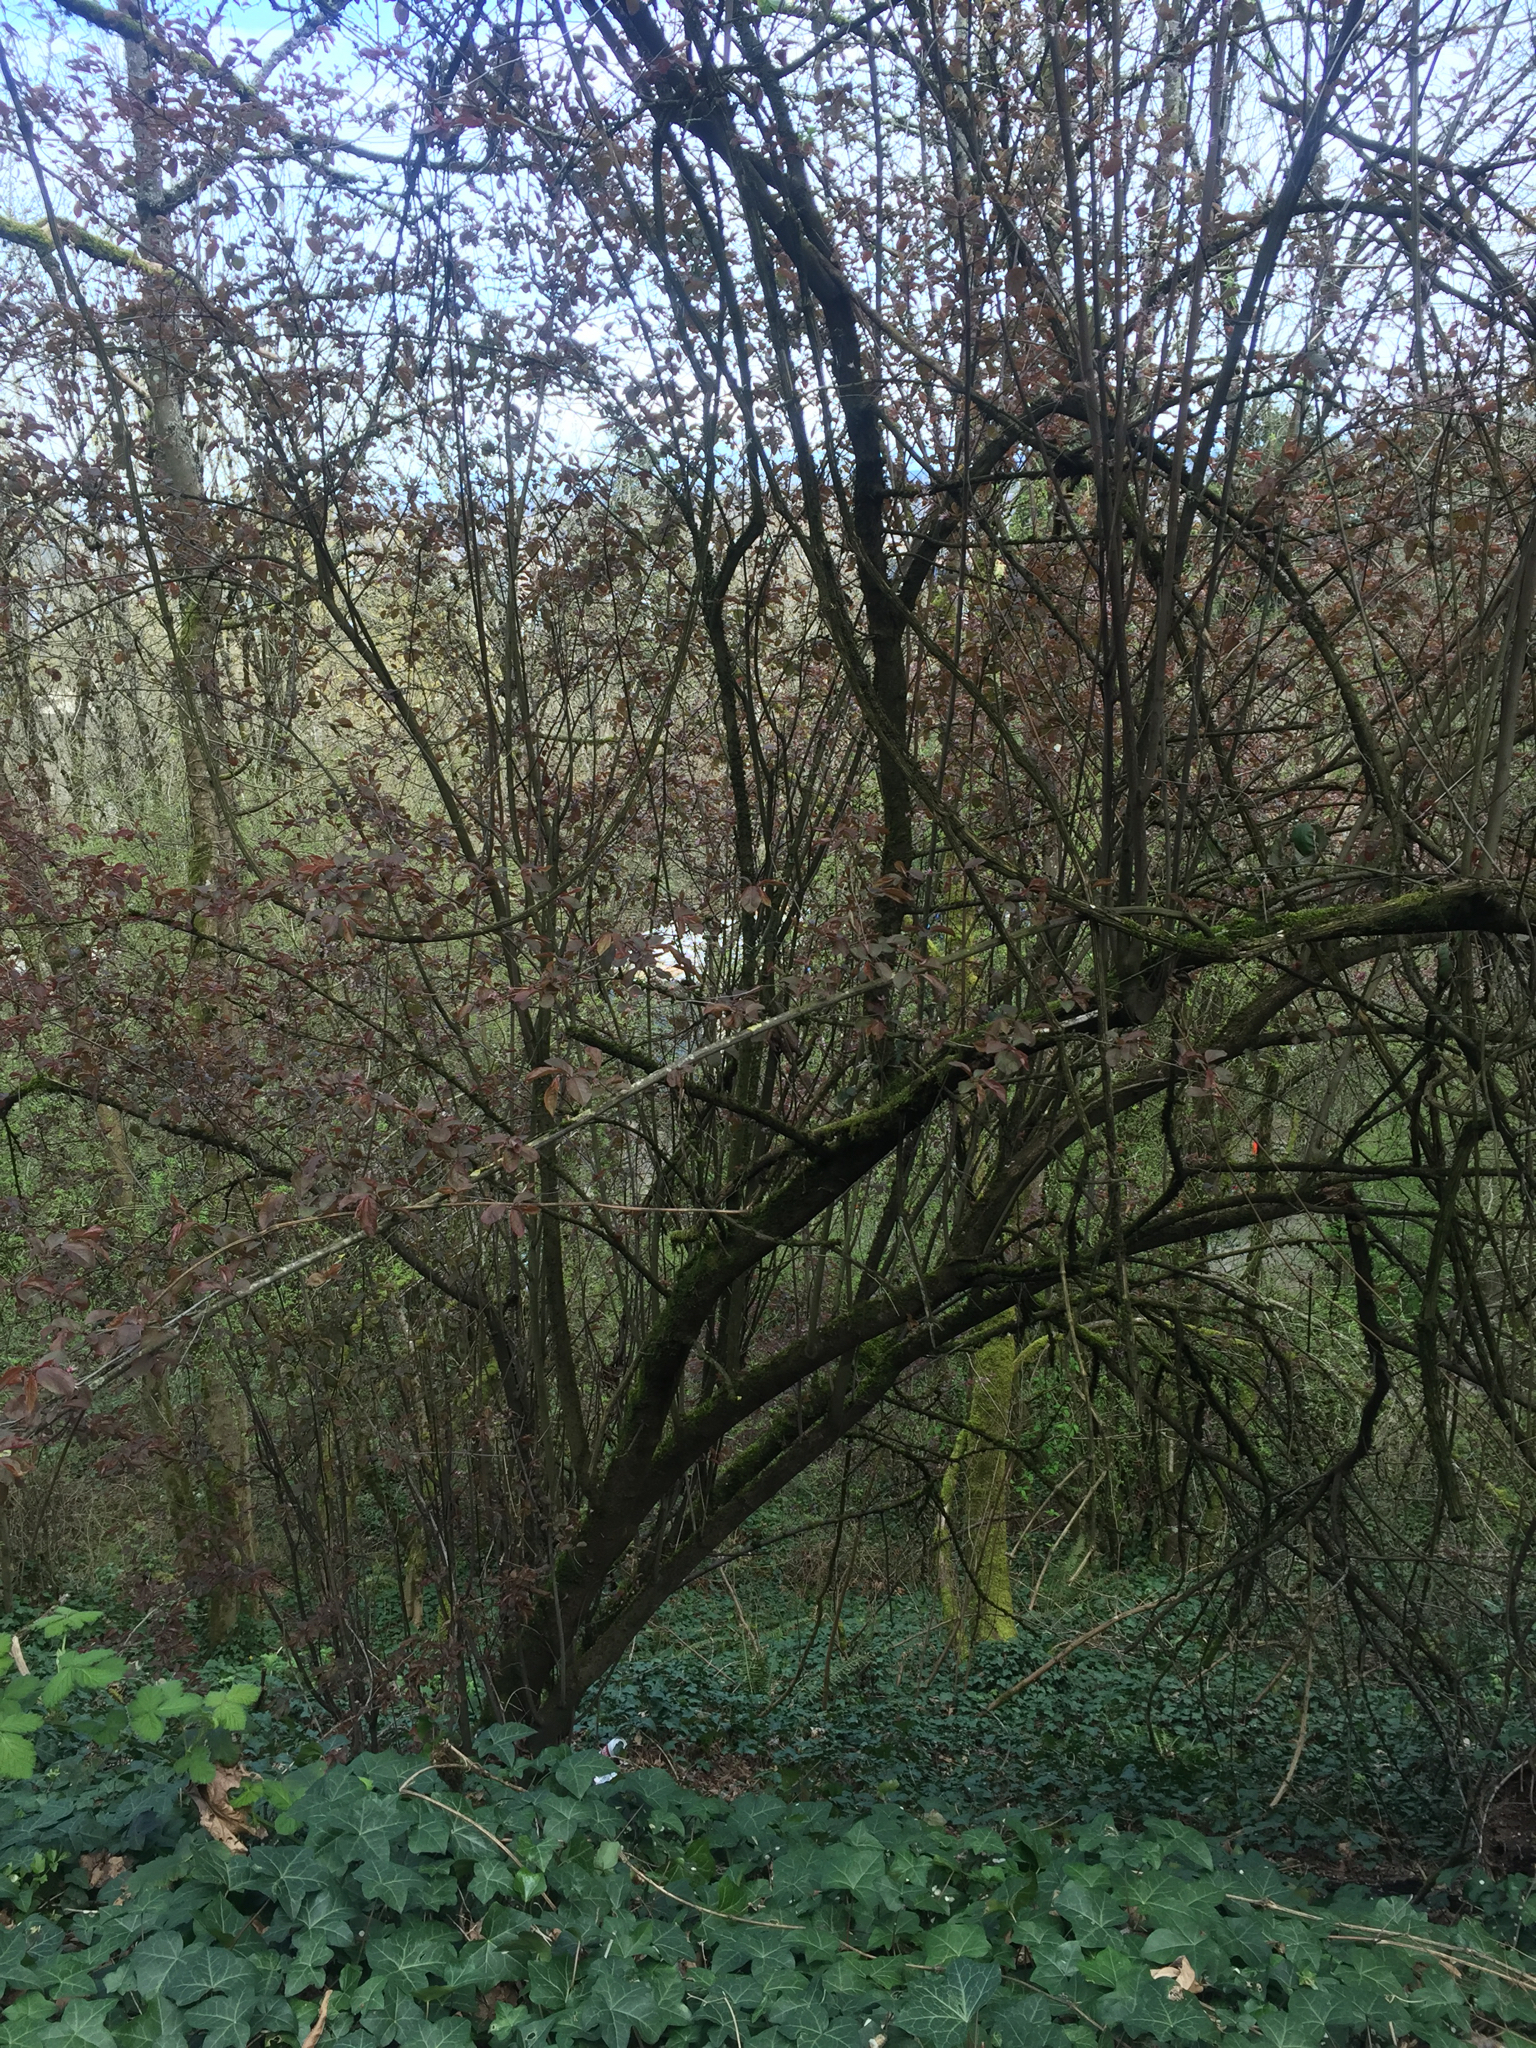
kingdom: Plantae
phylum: Tracheophyta
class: Magnoliopsida
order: Rosales
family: Rosaceae
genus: Prunus
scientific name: Prunus cerasifera
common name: Cherry plum
